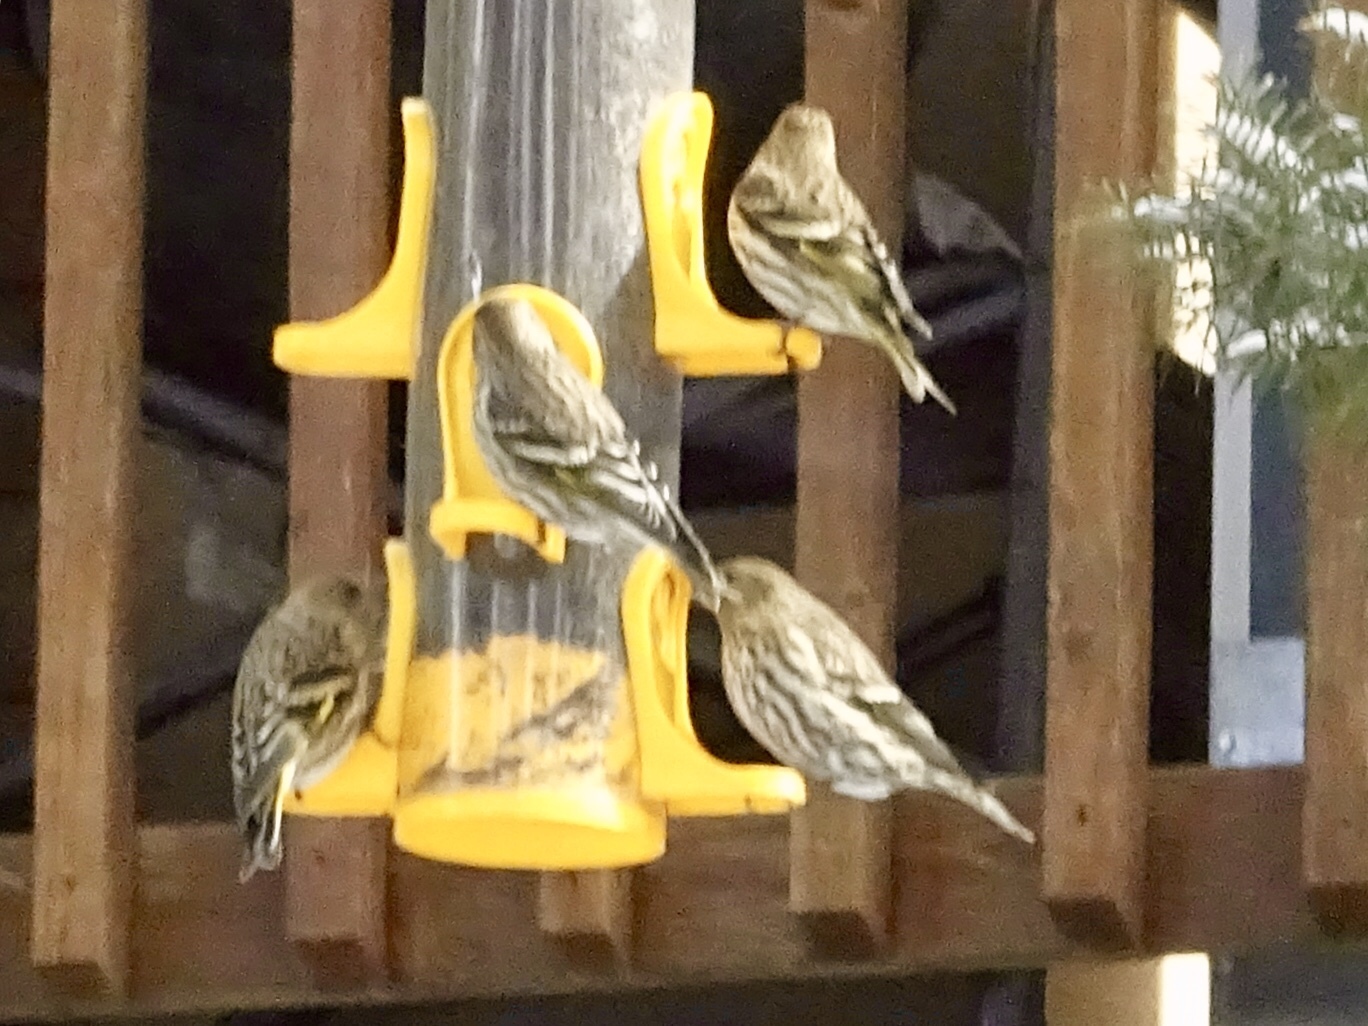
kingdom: Animalia
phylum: Chordata
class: Aves
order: Passeriformes
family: Fringillidae
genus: Spinus
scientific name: Spinus pinus
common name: Pine siskin
